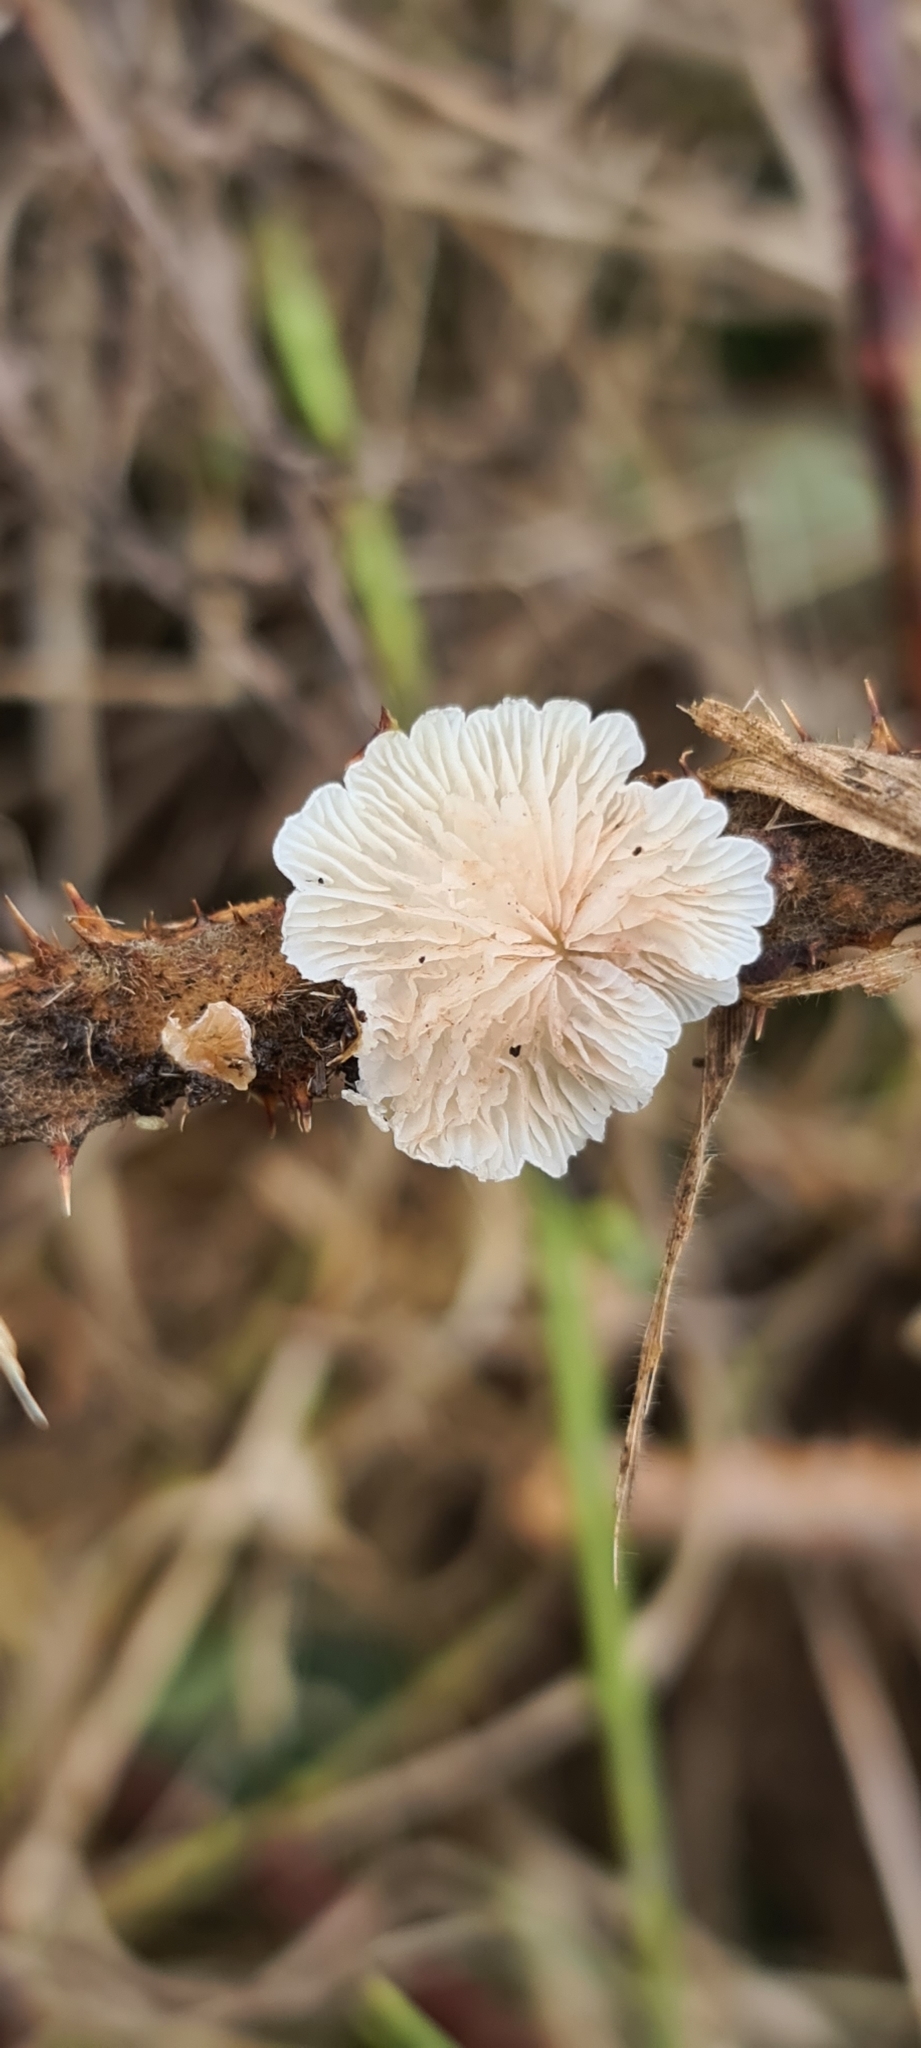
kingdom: Fungi
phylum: Basidiomycota
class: Agaricomycetes
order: Agaricales
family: Entolomataceae
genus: Clitopilus
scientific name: Clitopilus hobsonii
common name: Miller's oysterling
